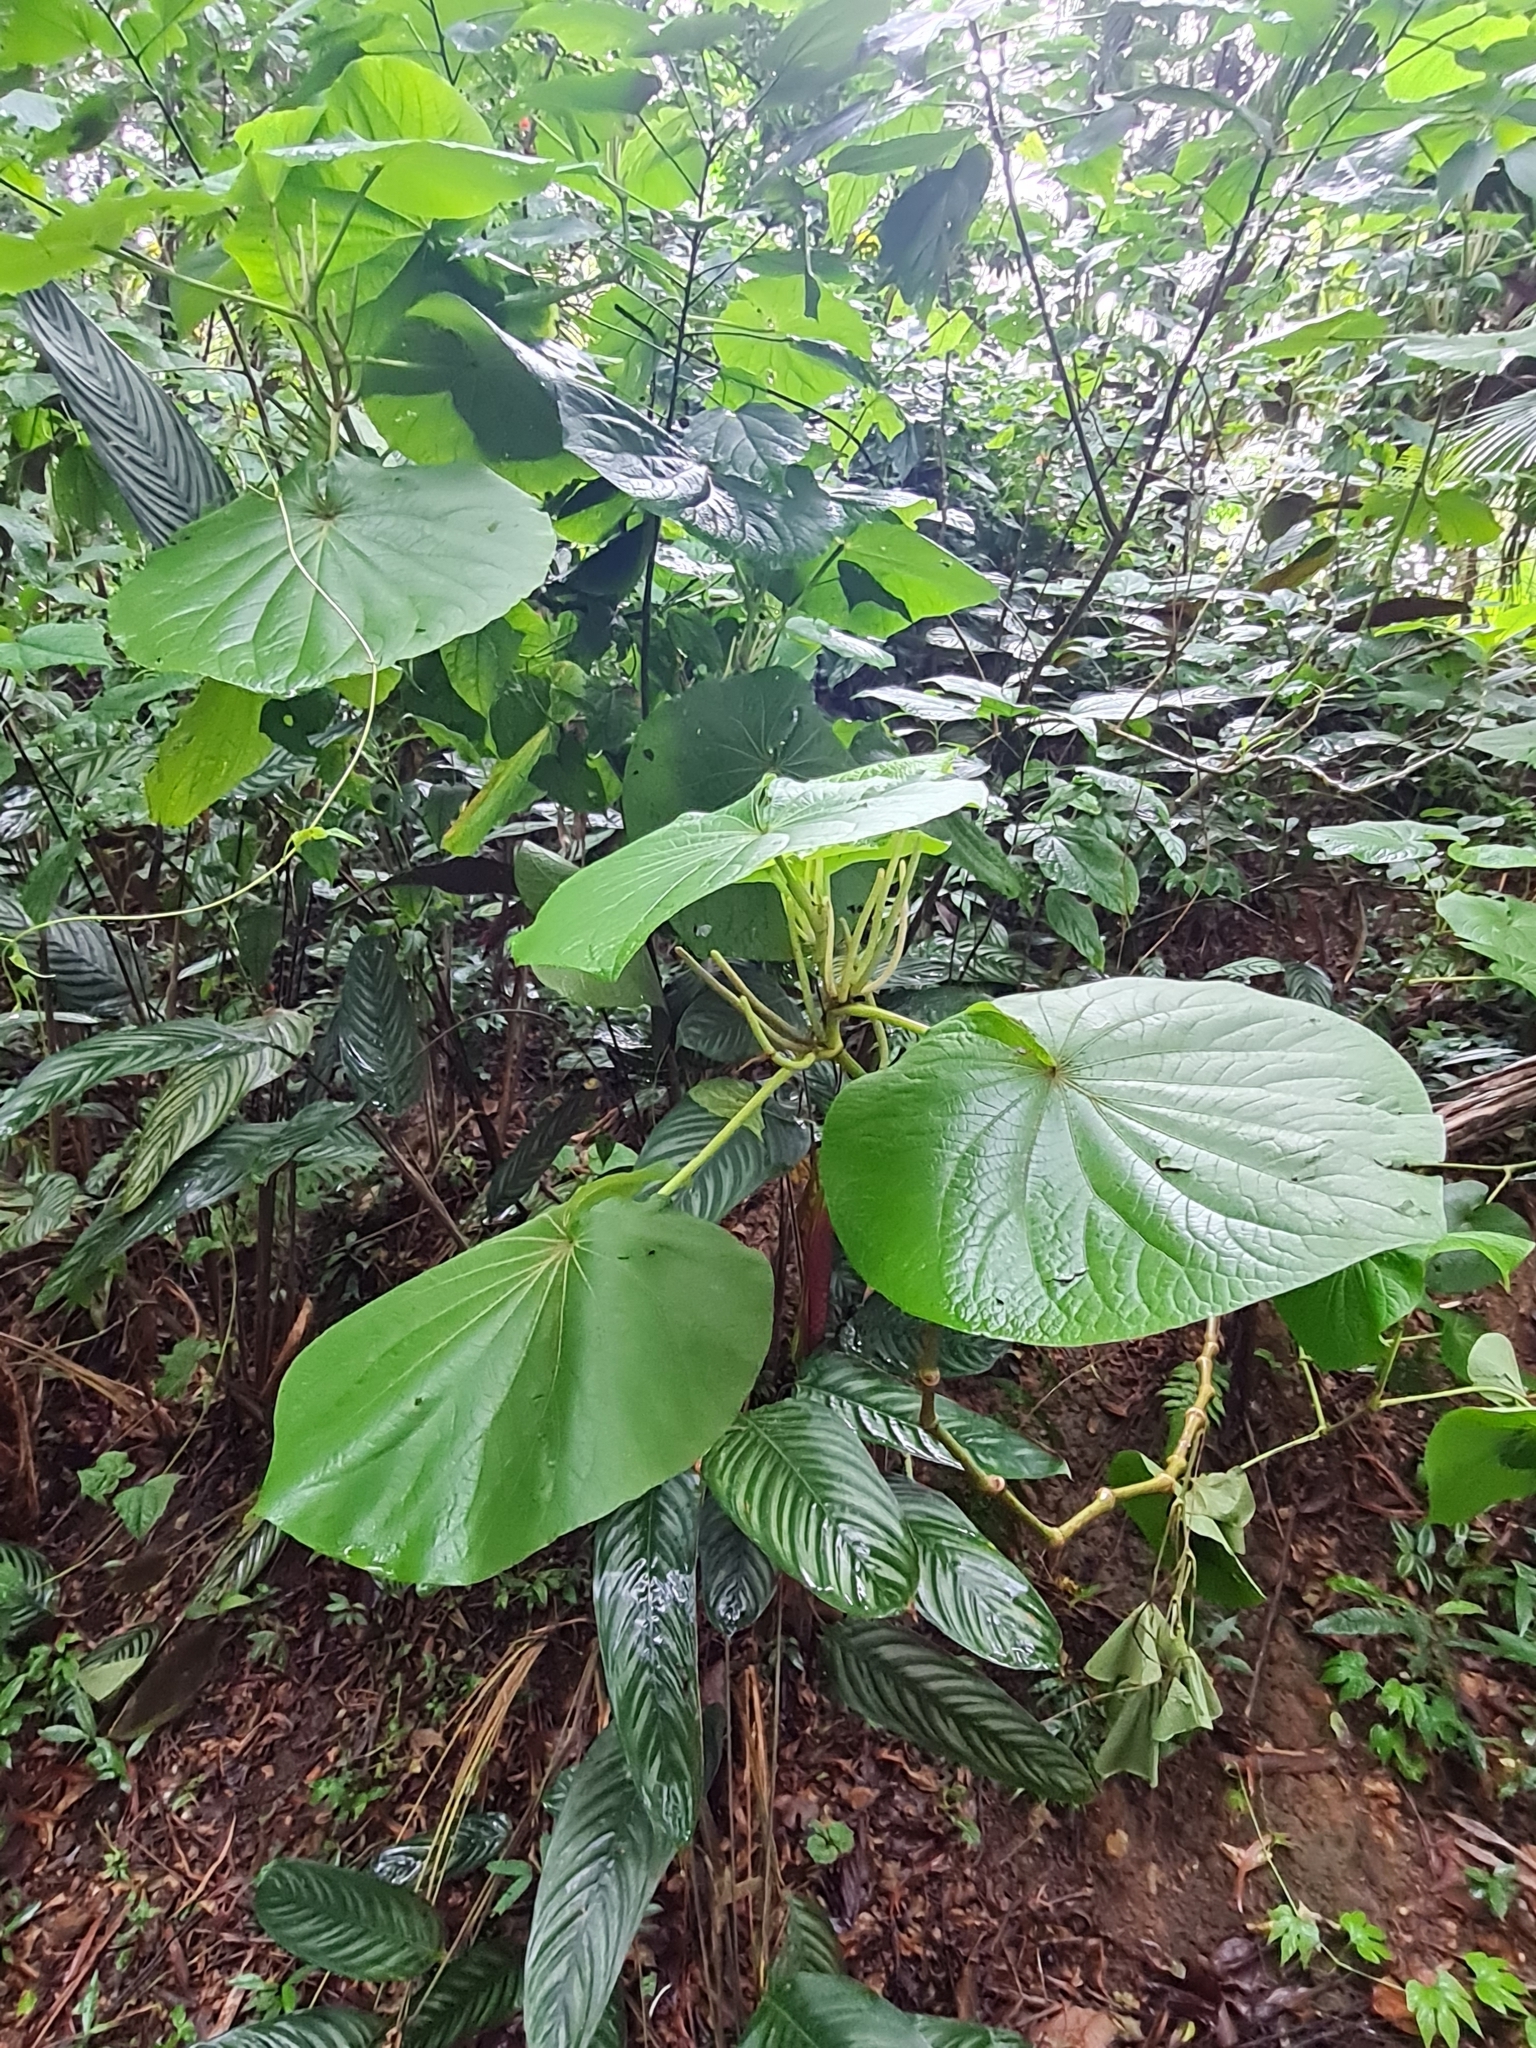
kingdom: Plantae
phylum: Tracheophyta
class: Magnoliopsida
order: Piperales
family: Piperaceae
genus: Piper
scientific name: Piper umbellatum
